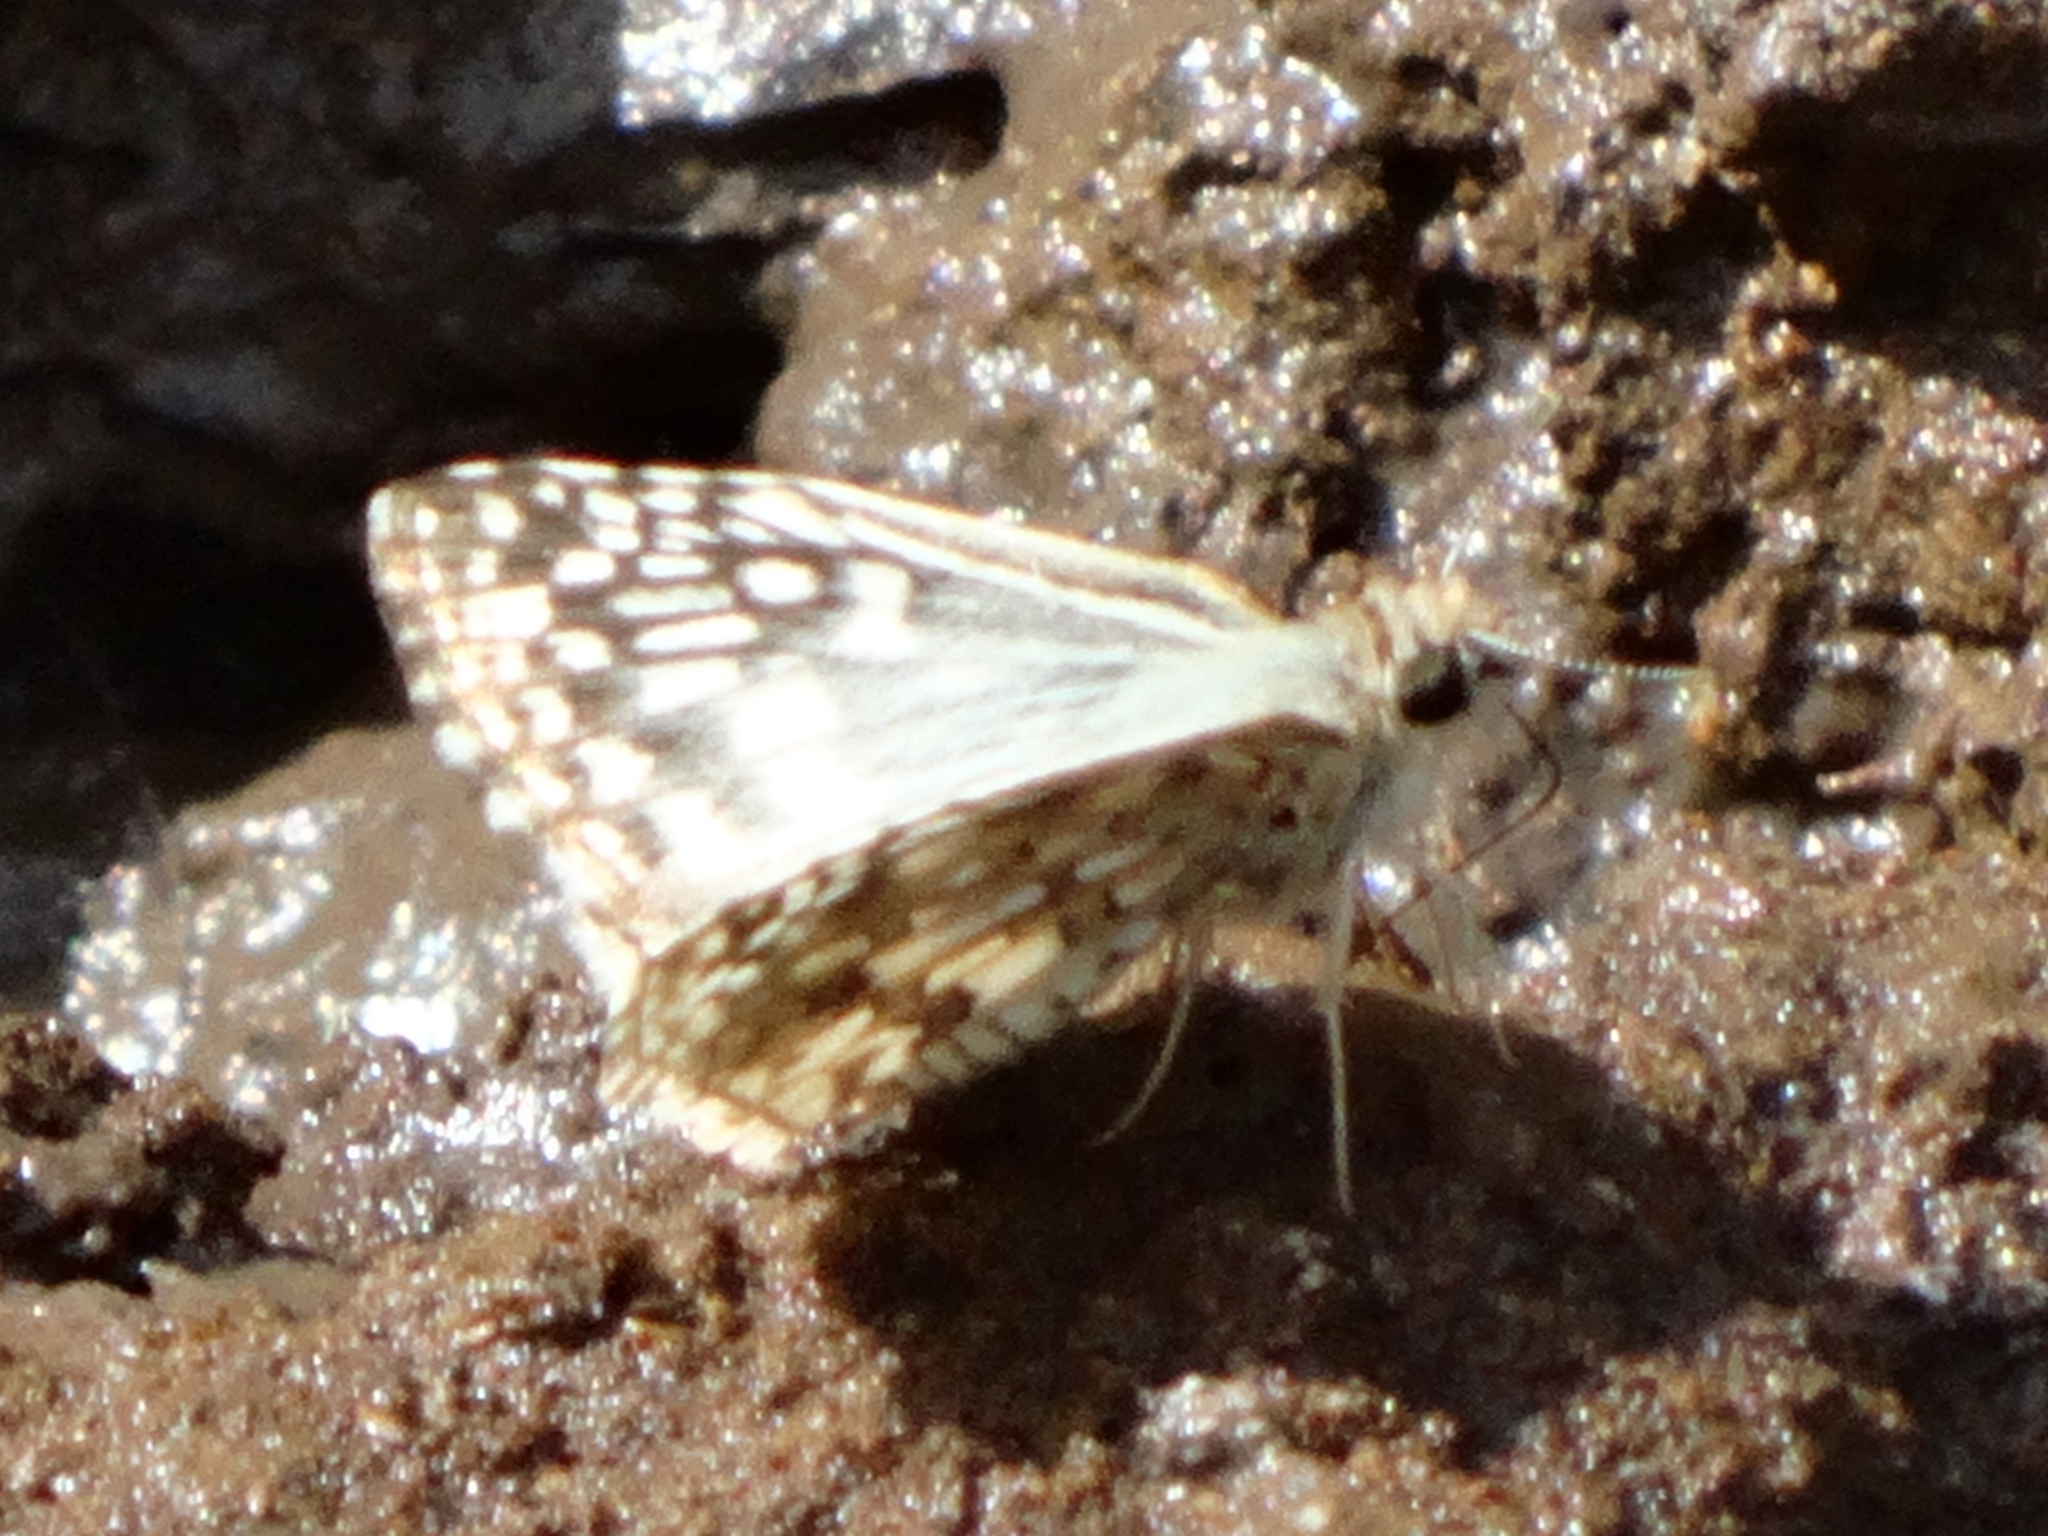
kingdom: Animalia
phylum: Arthropoda
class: Insecta
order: Lepidoptera
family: Hesperiidae
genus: Pyrgus
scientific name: Pyrgus oileus
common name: Tropical checkered-skipper
